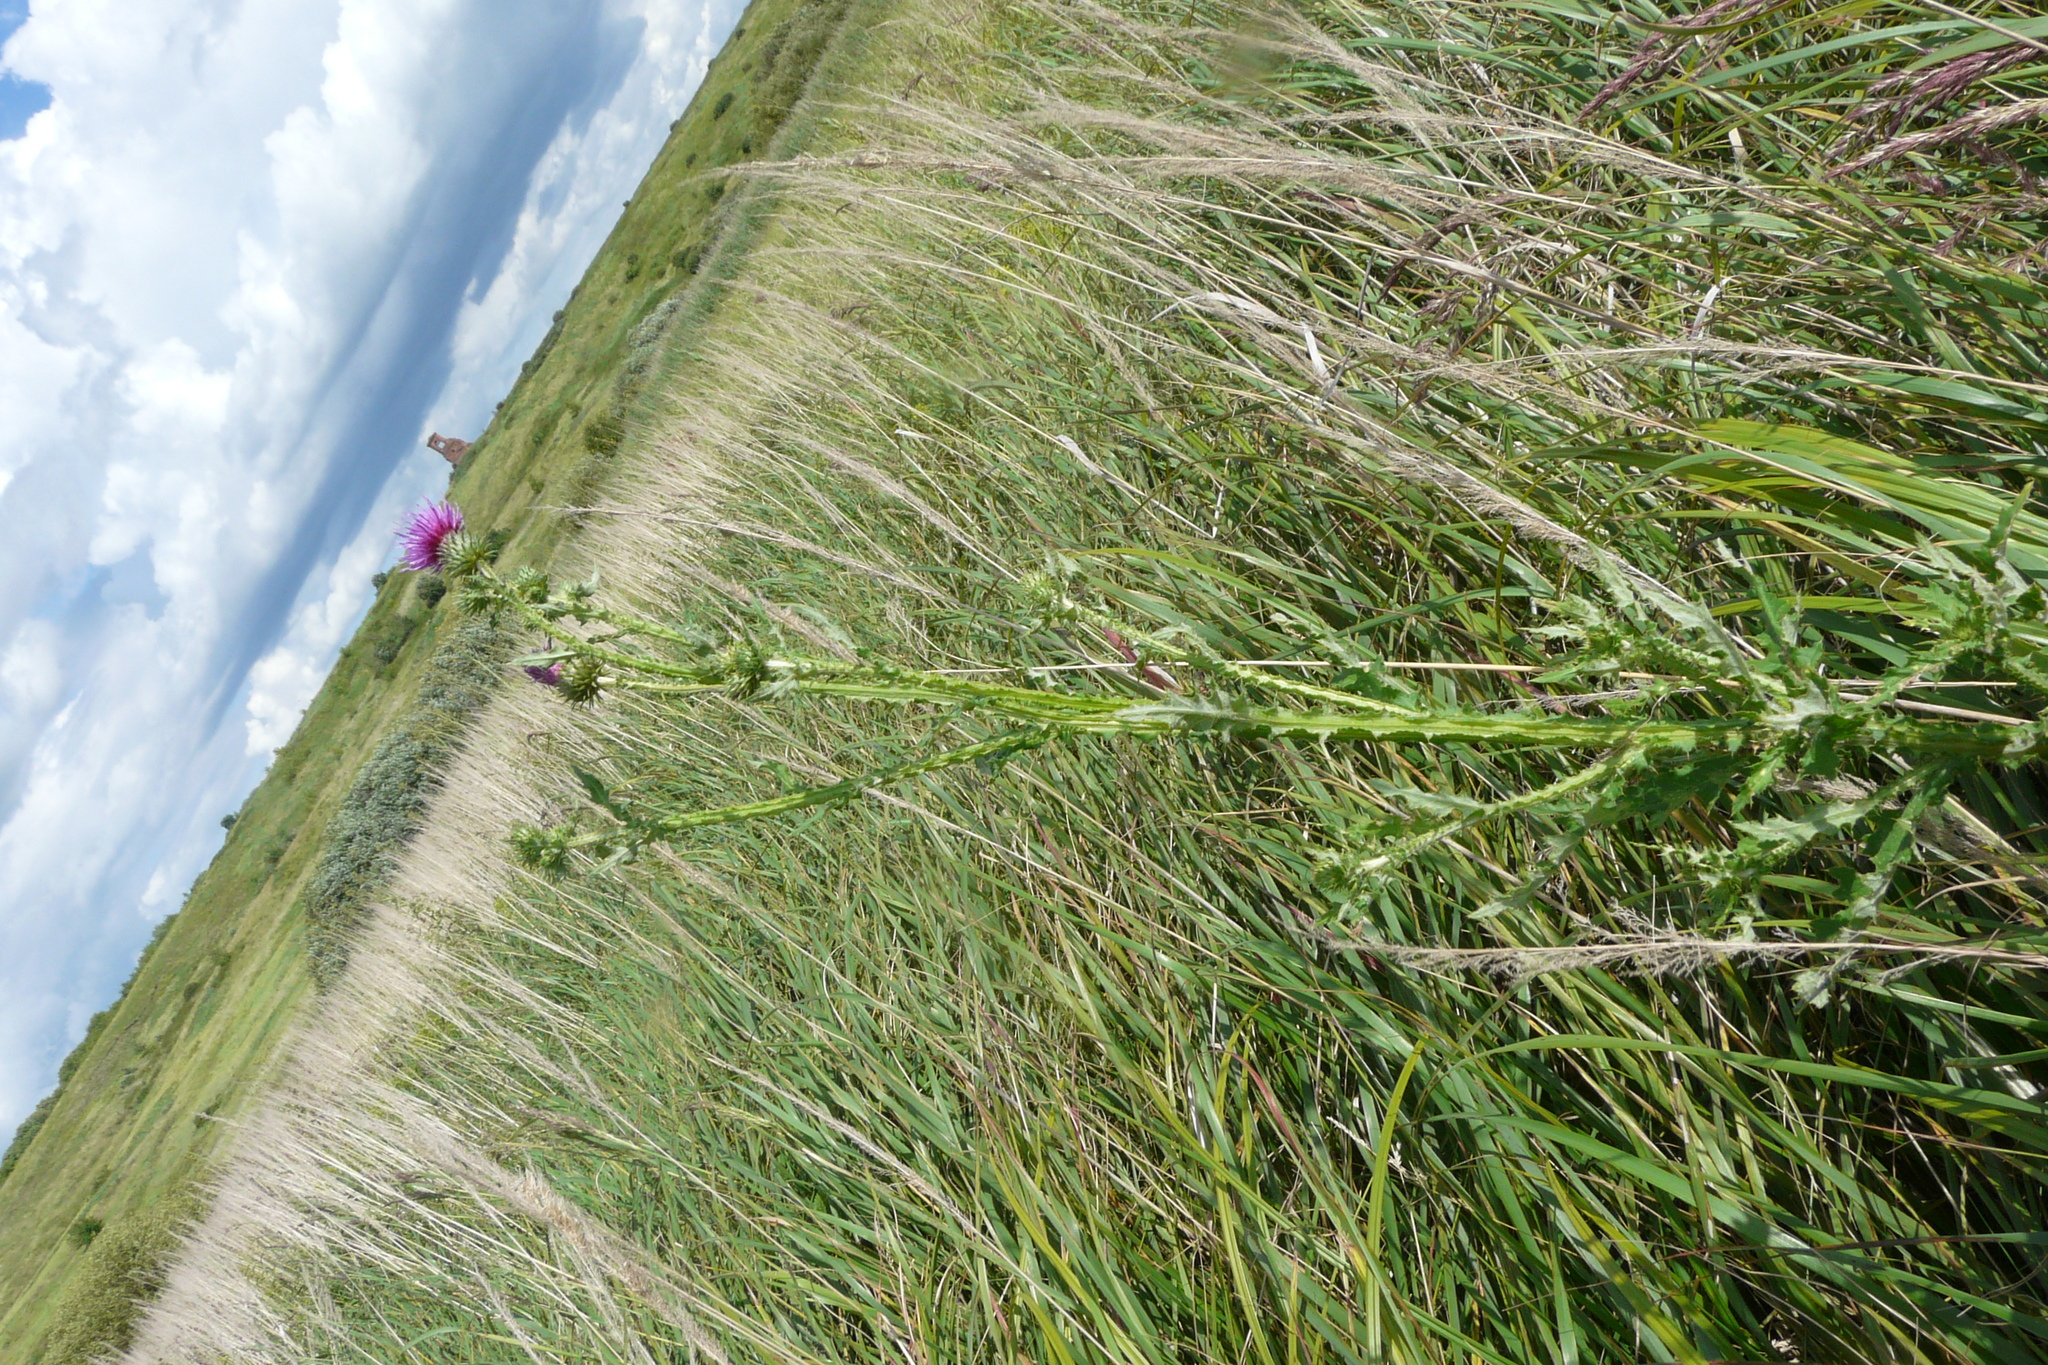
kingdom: Plantae
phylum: Tracheophyta
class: Magnoliopsida
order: Asterales
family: Asteraceae
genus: Carduus
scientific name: Carduus crispus
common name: Welted thistle
